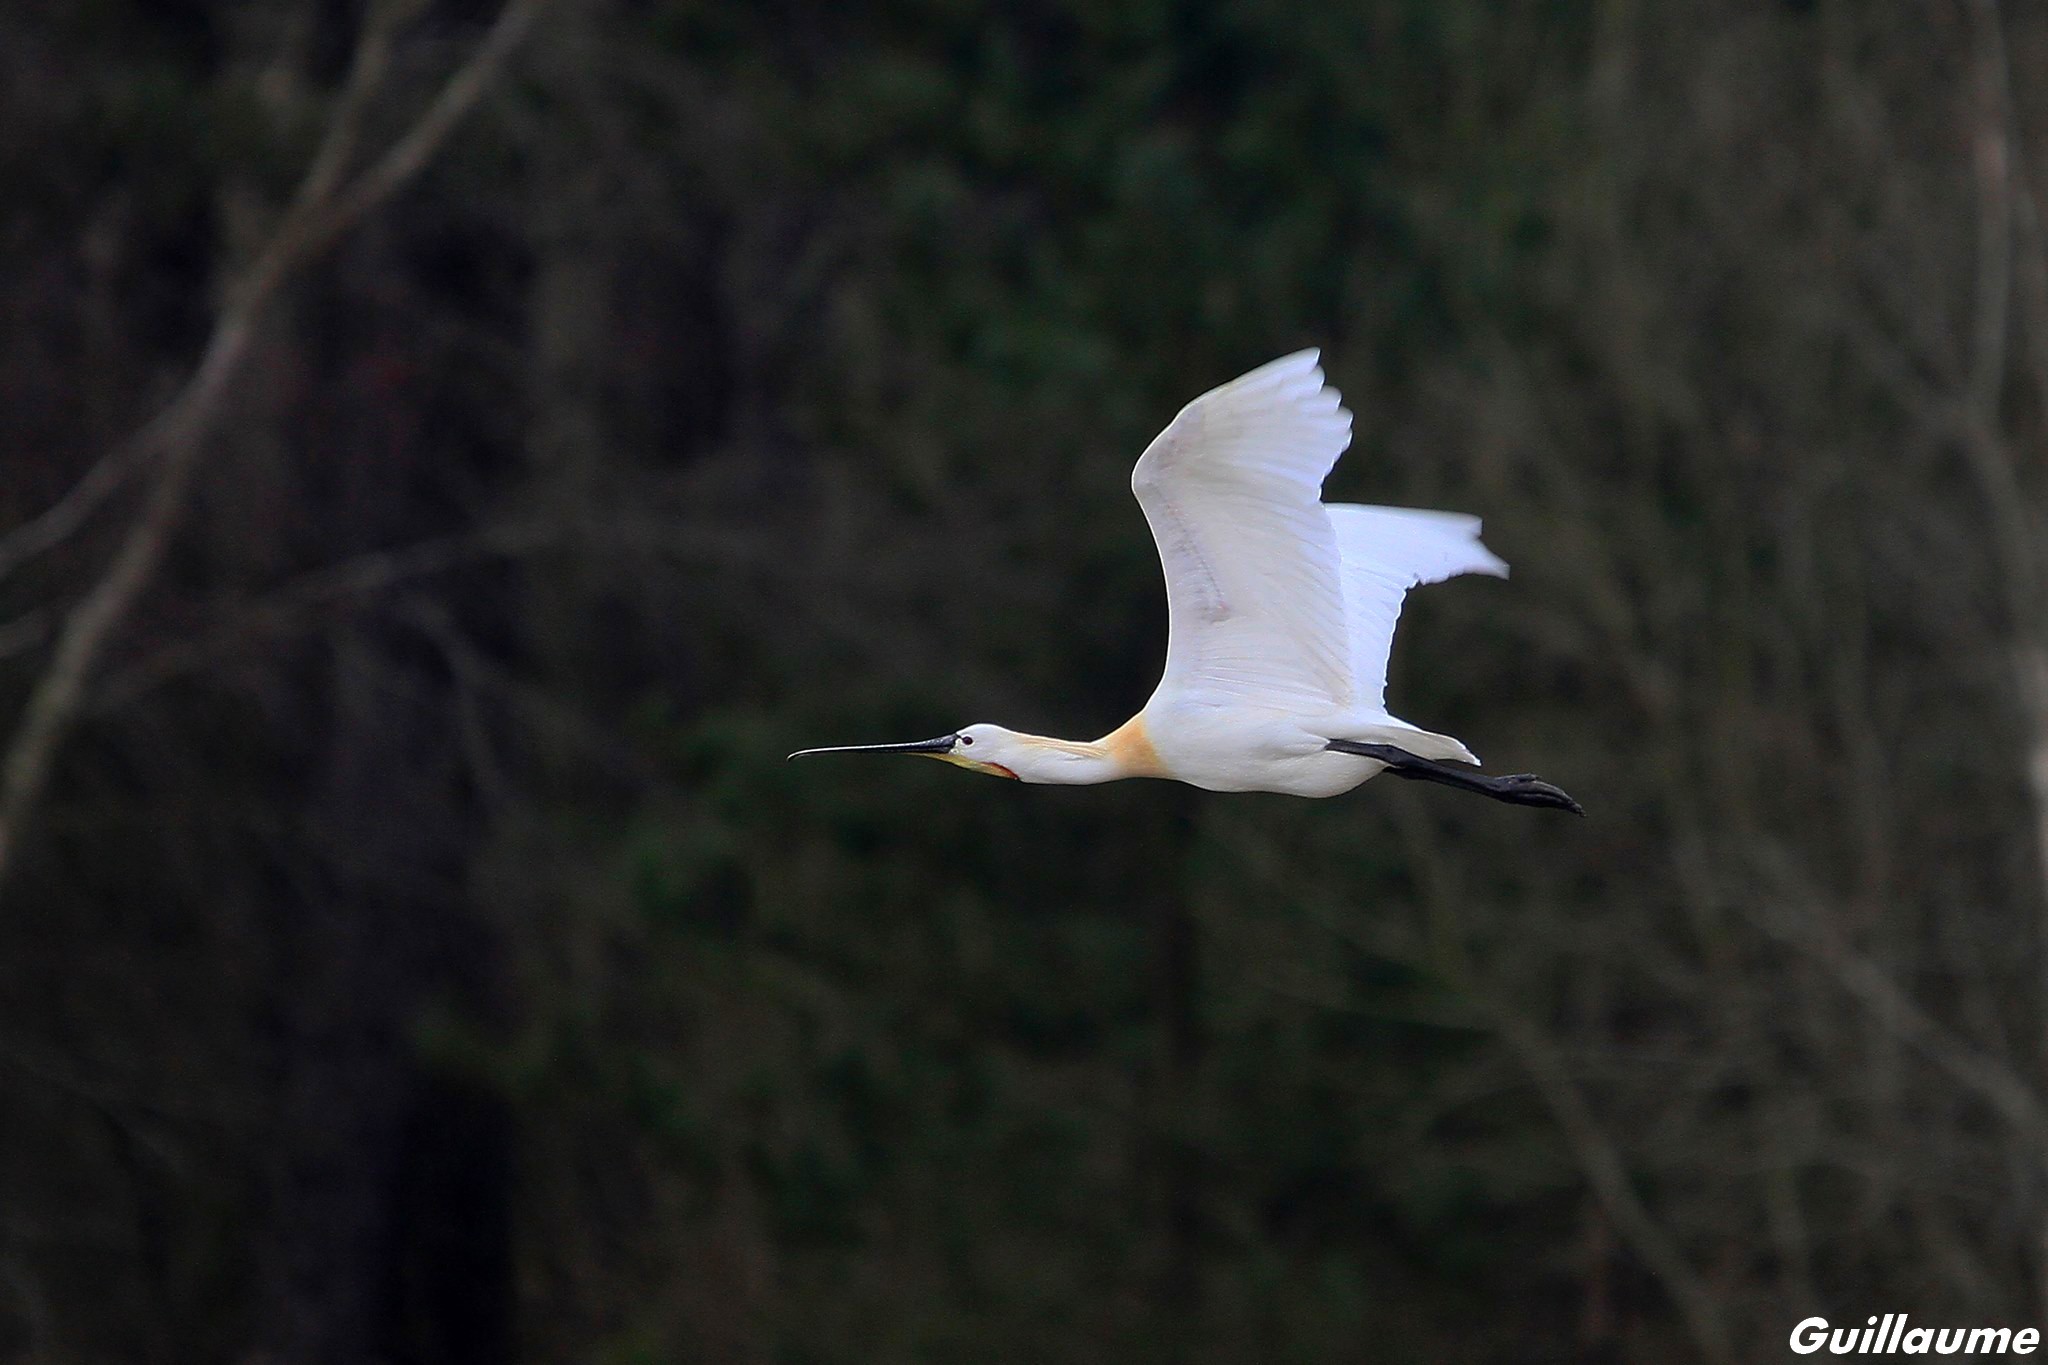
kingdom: Animalia
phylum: Chordata
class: Aves
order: Pelecaniformes
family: Threskiornithidae
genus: Platalea
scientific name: Platalea leucorodia
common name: Eurasian spoonbill
